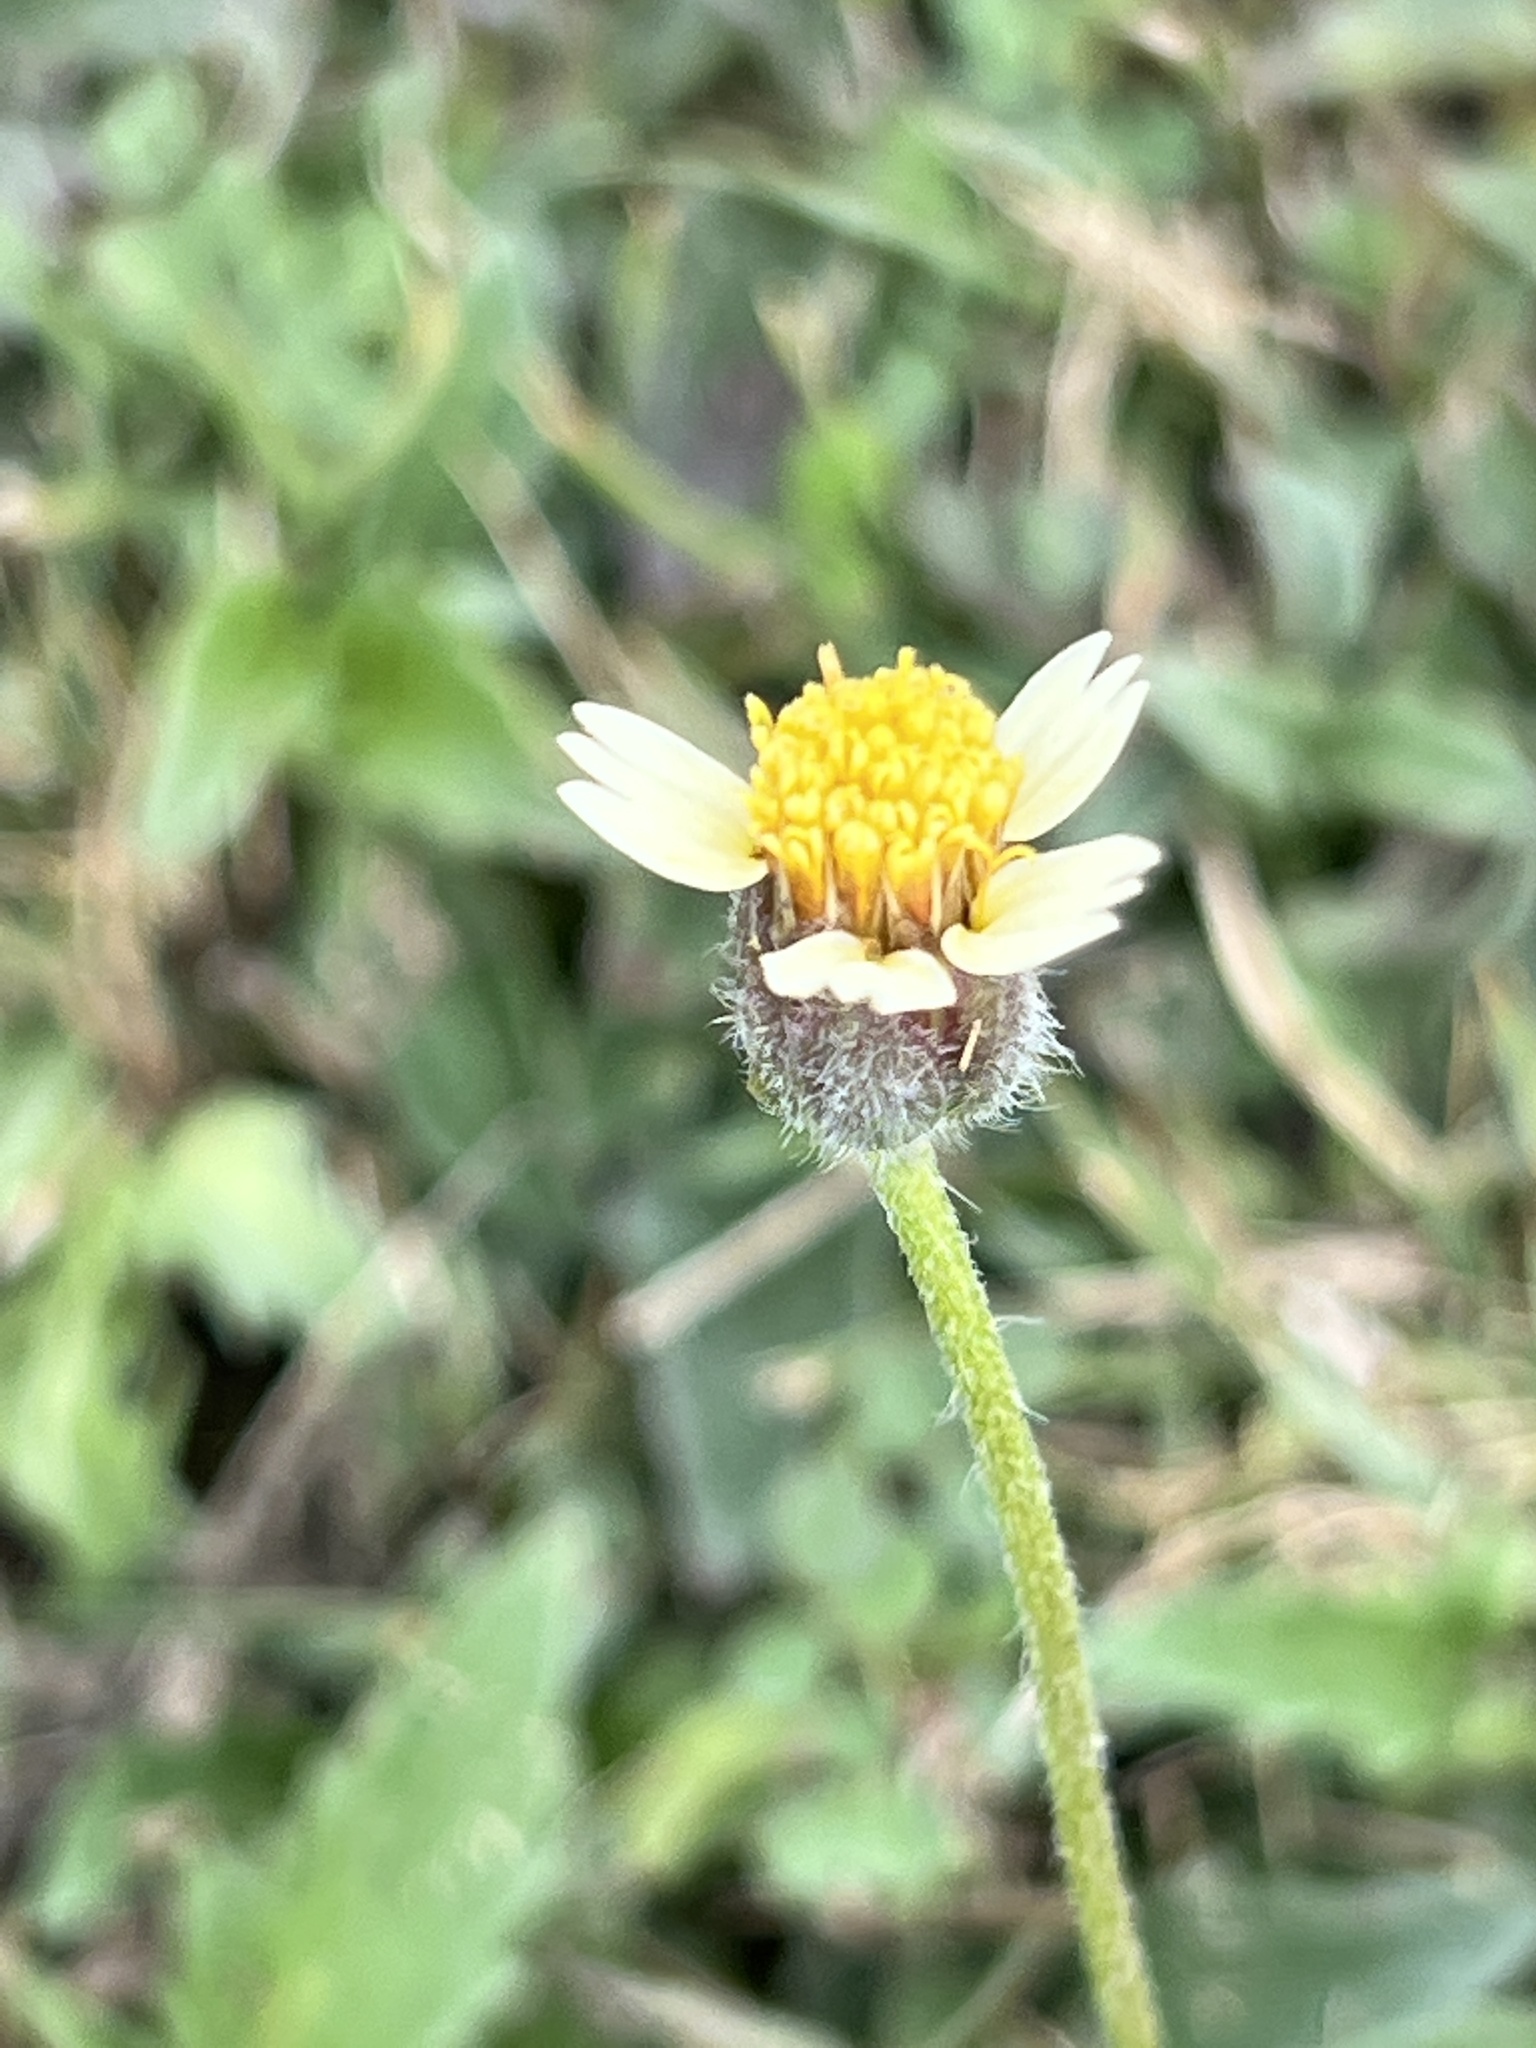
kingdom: Plantae
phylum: Tracheophyta
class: Magnoliopsida
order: Asterales
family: Asteraceae
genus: Tridax
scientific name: Tridax procumbens
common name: Coatbuttons
